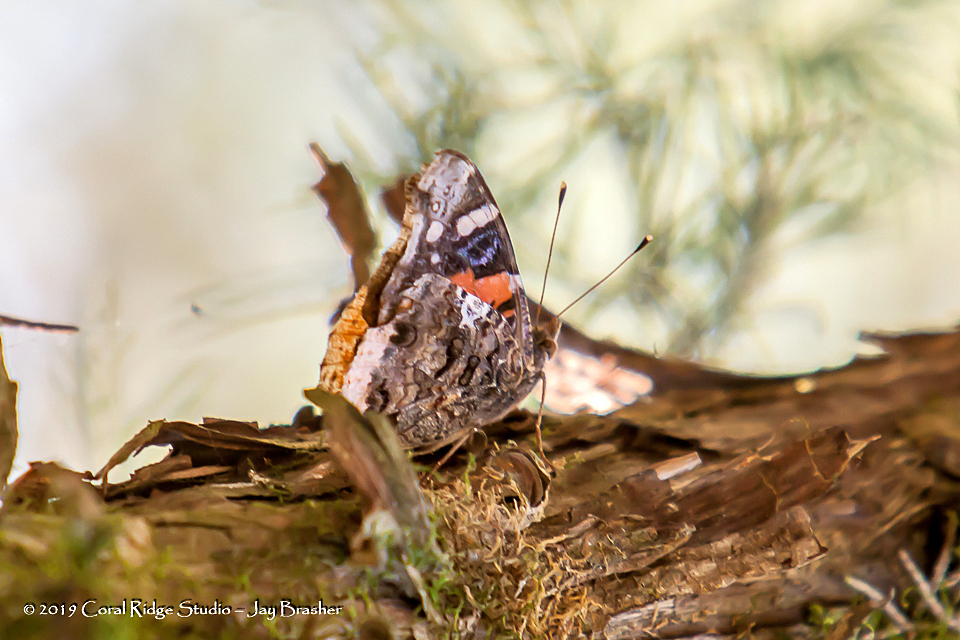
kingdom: Animalia
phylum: Arthropoda
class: Insecta
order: Lepidoptera
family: Nymphalidae
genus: Vanessa
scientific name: Vanessa atalanta
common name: Red admiral
